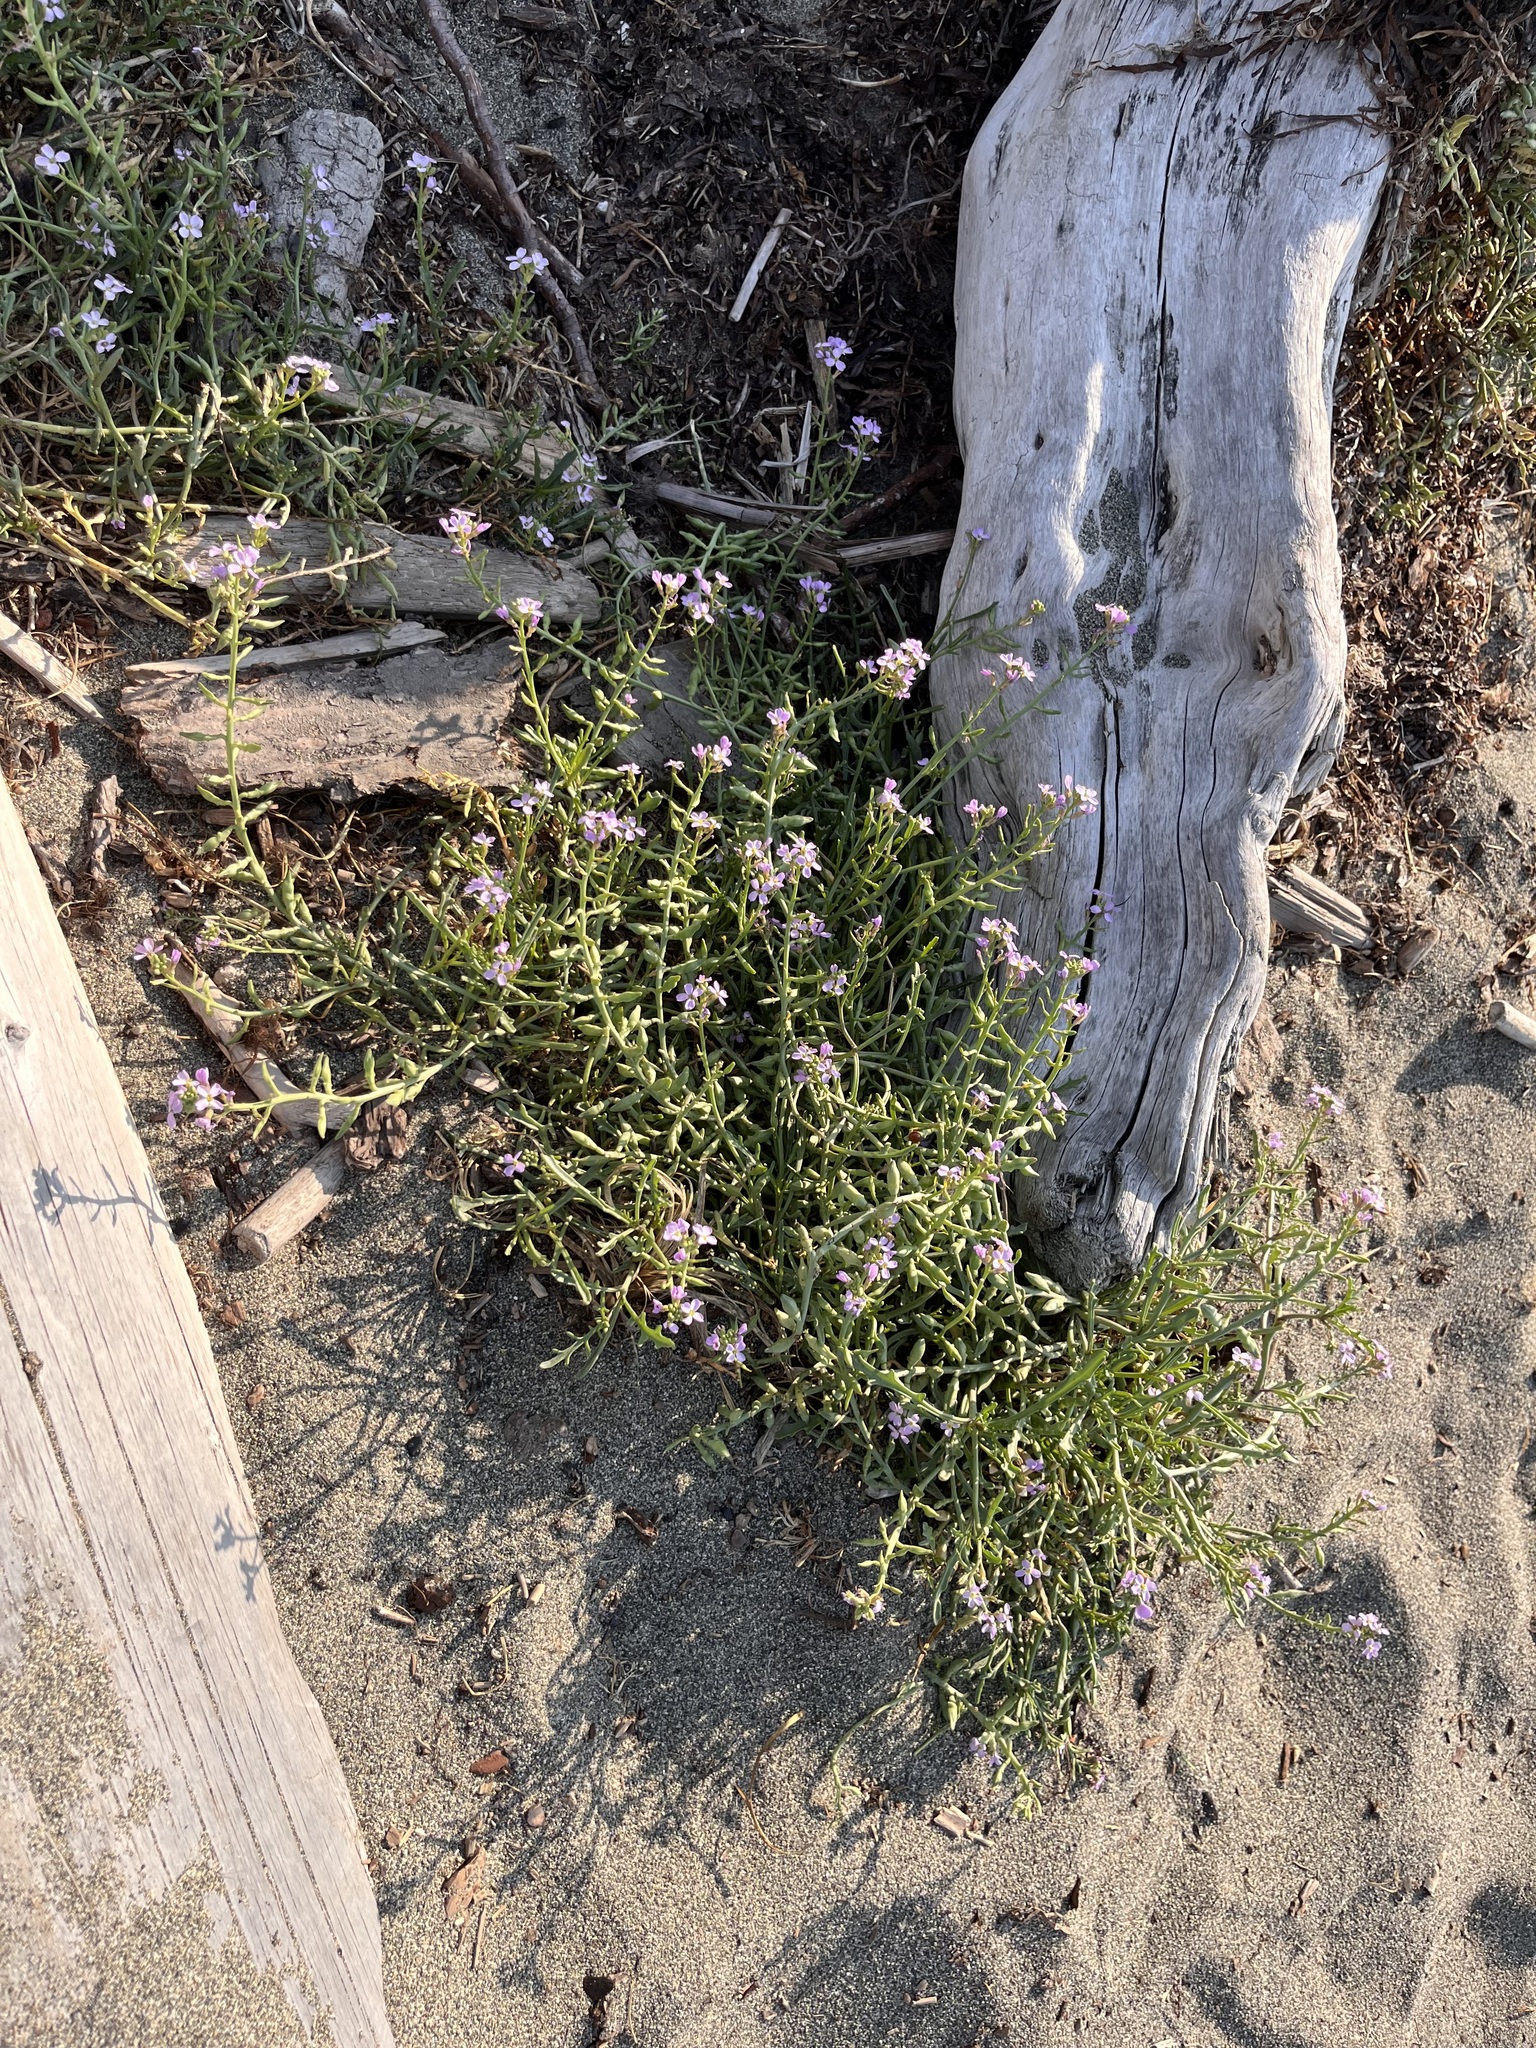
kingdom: Plantae
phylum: Tracheophyta
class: Magnoliopsida
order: Brassicales
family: Brassicaceae
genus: Cakile
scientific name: Cakile maritima
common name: Sea rocket
